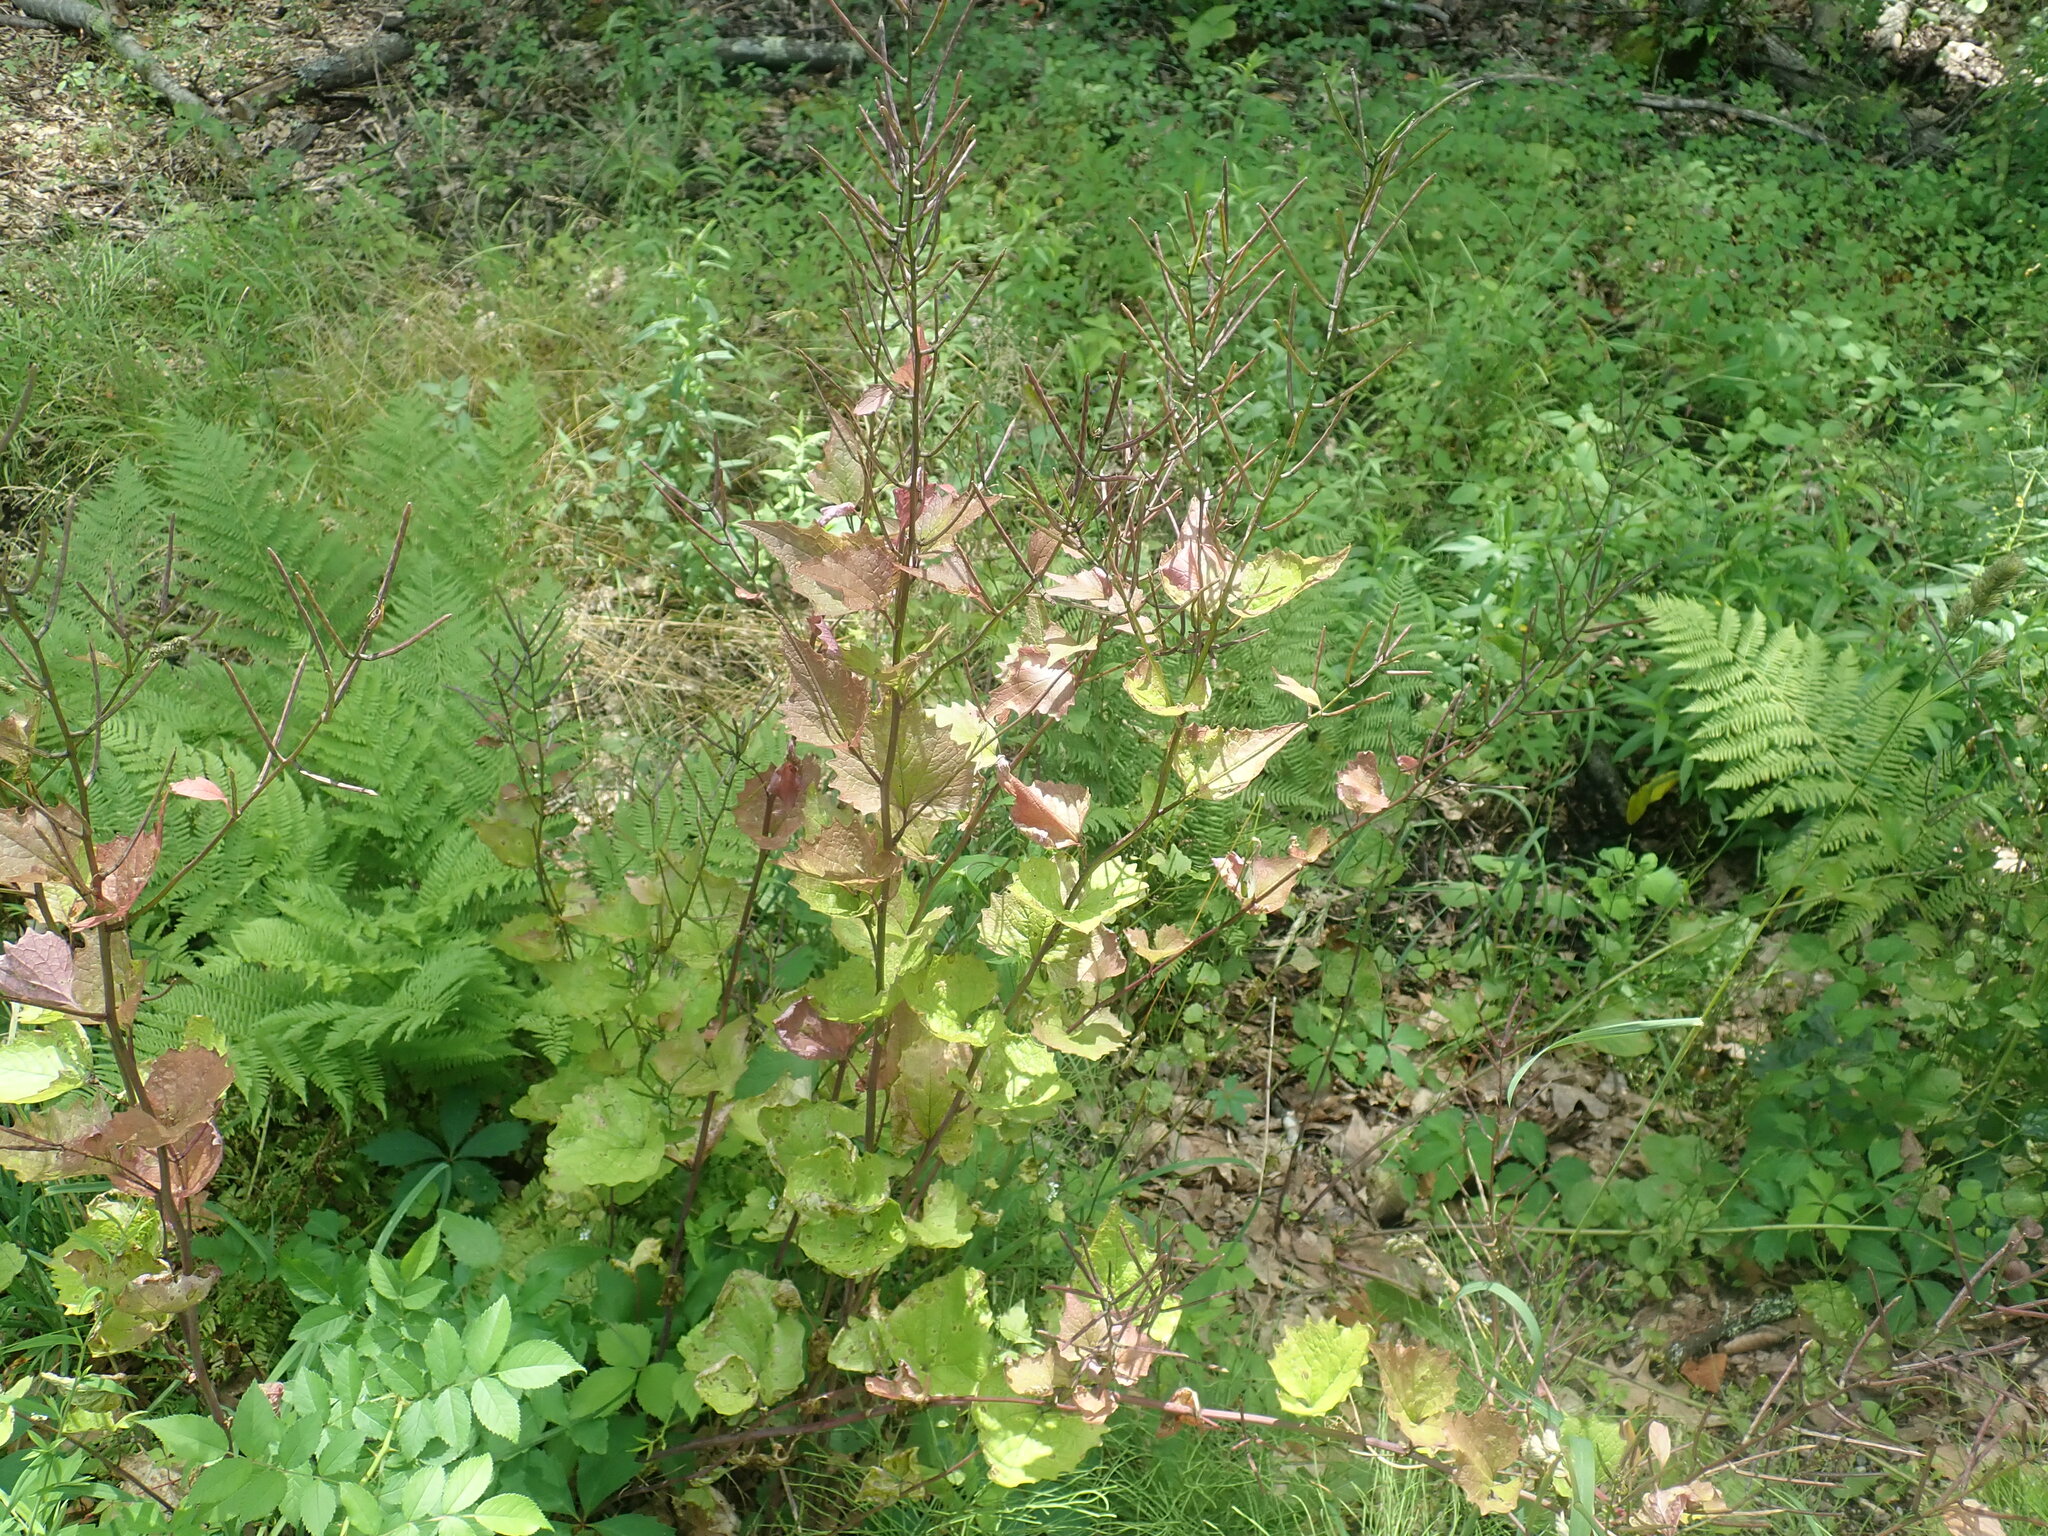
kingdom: Plantae
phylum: Tracheophyta
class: Magnoliopsida
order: Brassicales
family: Brassicaceae
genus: Alliaria
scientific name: Alliaria petiolata
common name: Garlic mustard
